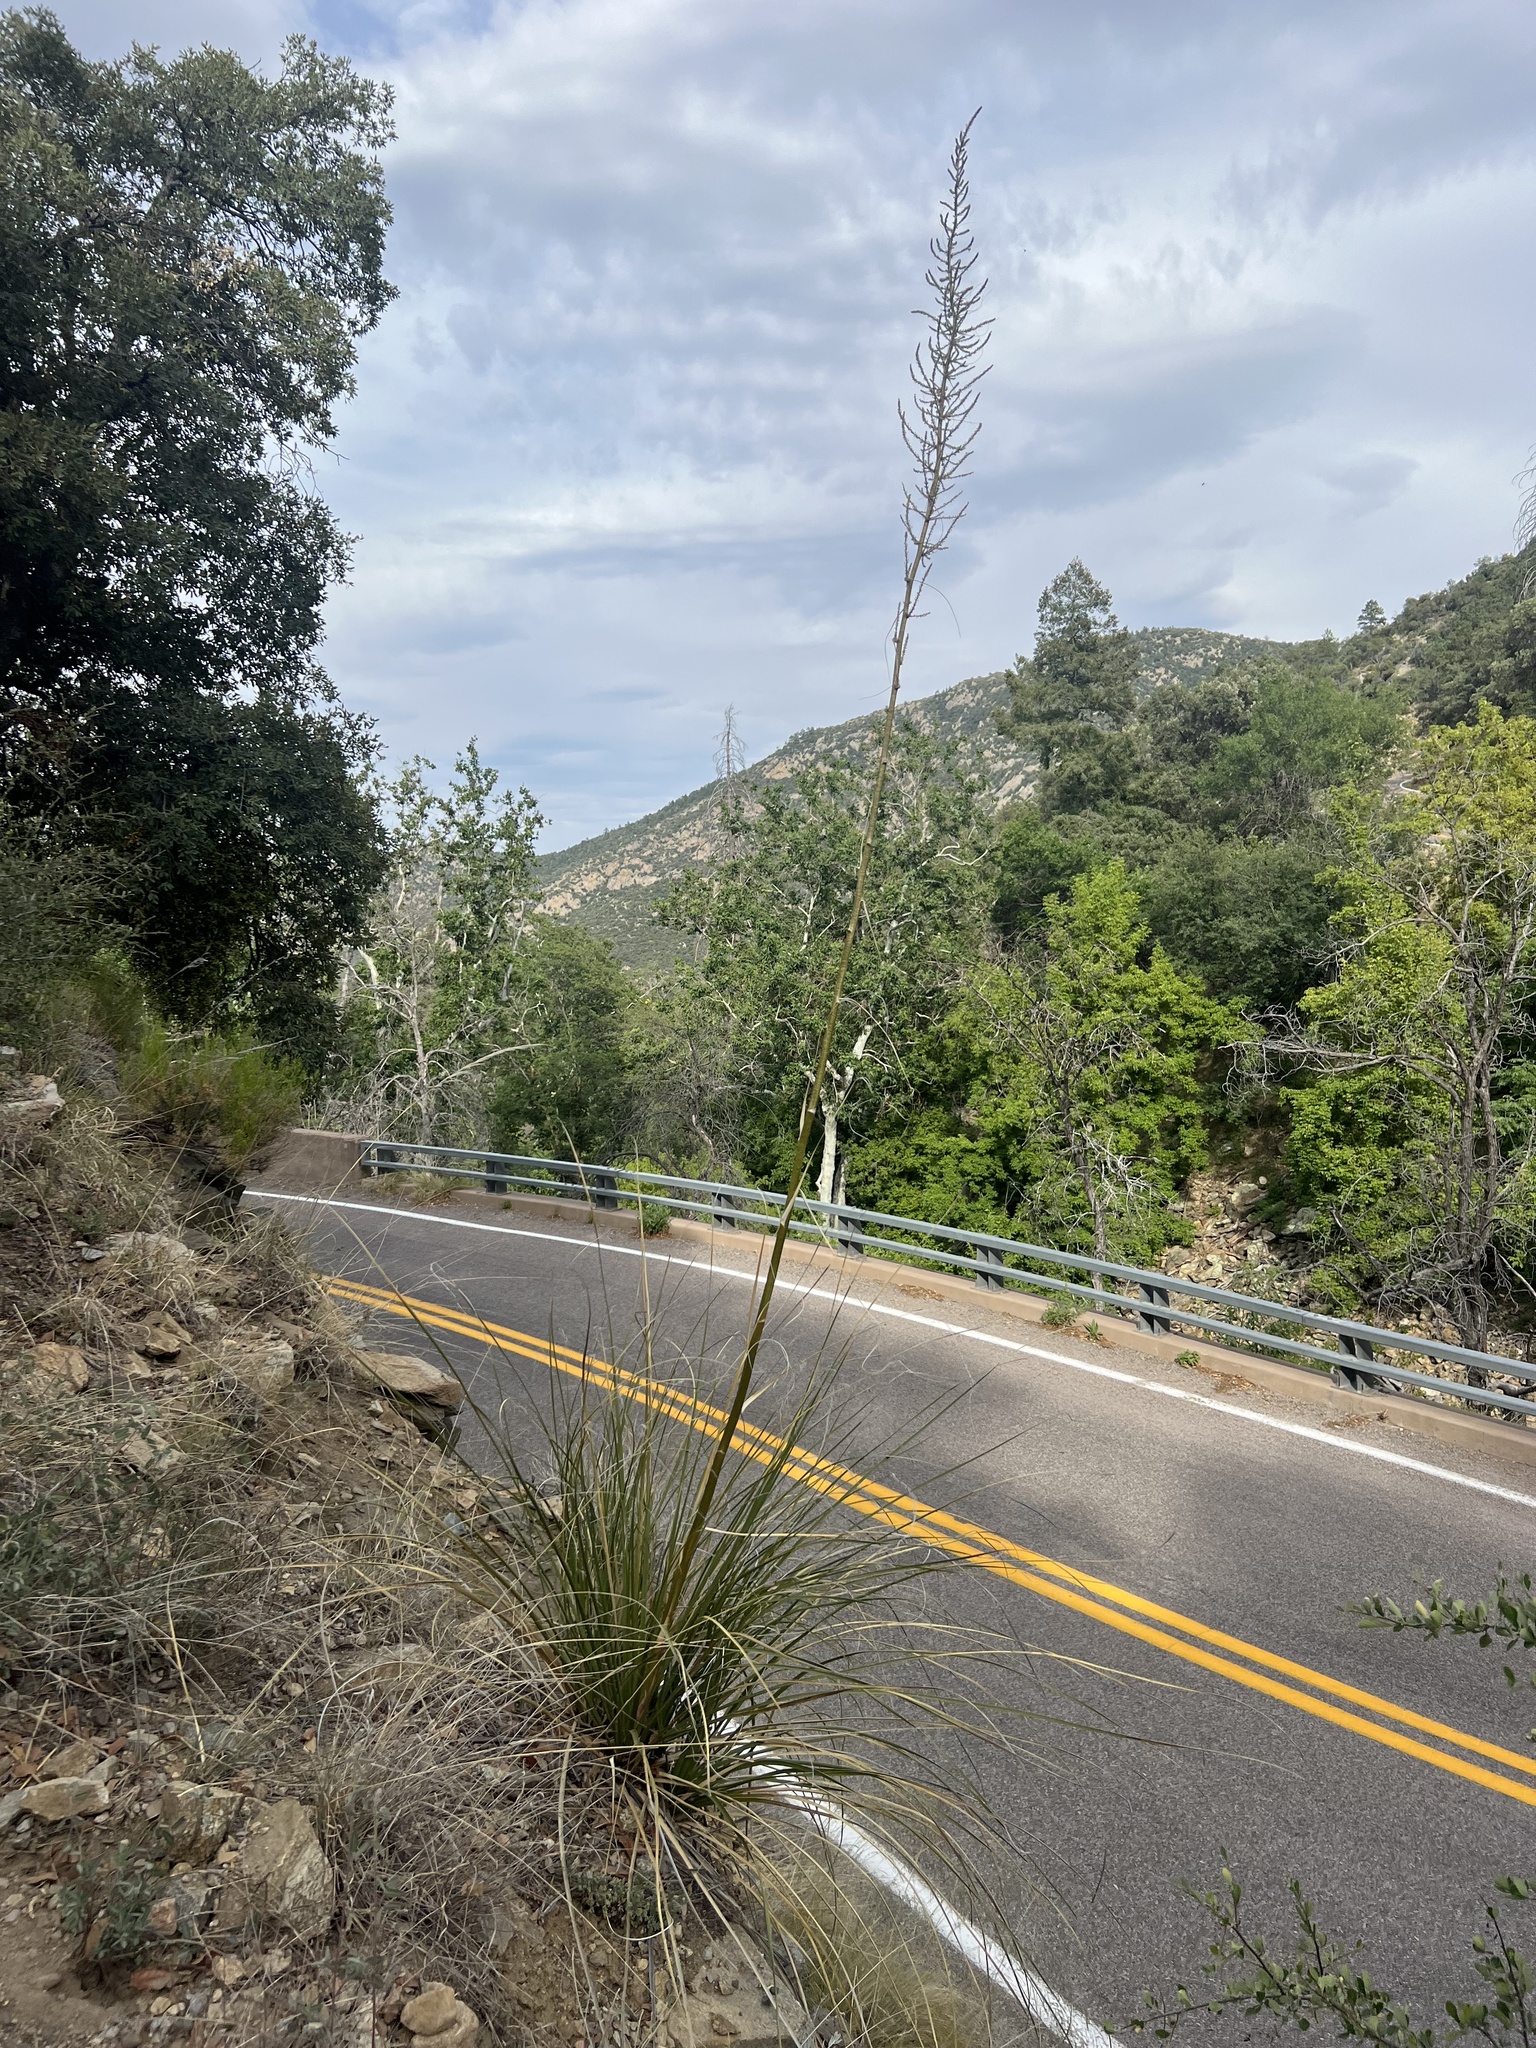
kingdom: Plantae
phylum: Tracheophyta
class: Liliopsida
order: Asparagales
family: Asparagaceae
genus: Nolina
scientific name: Nolina microcarpa
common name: Bear-grass
